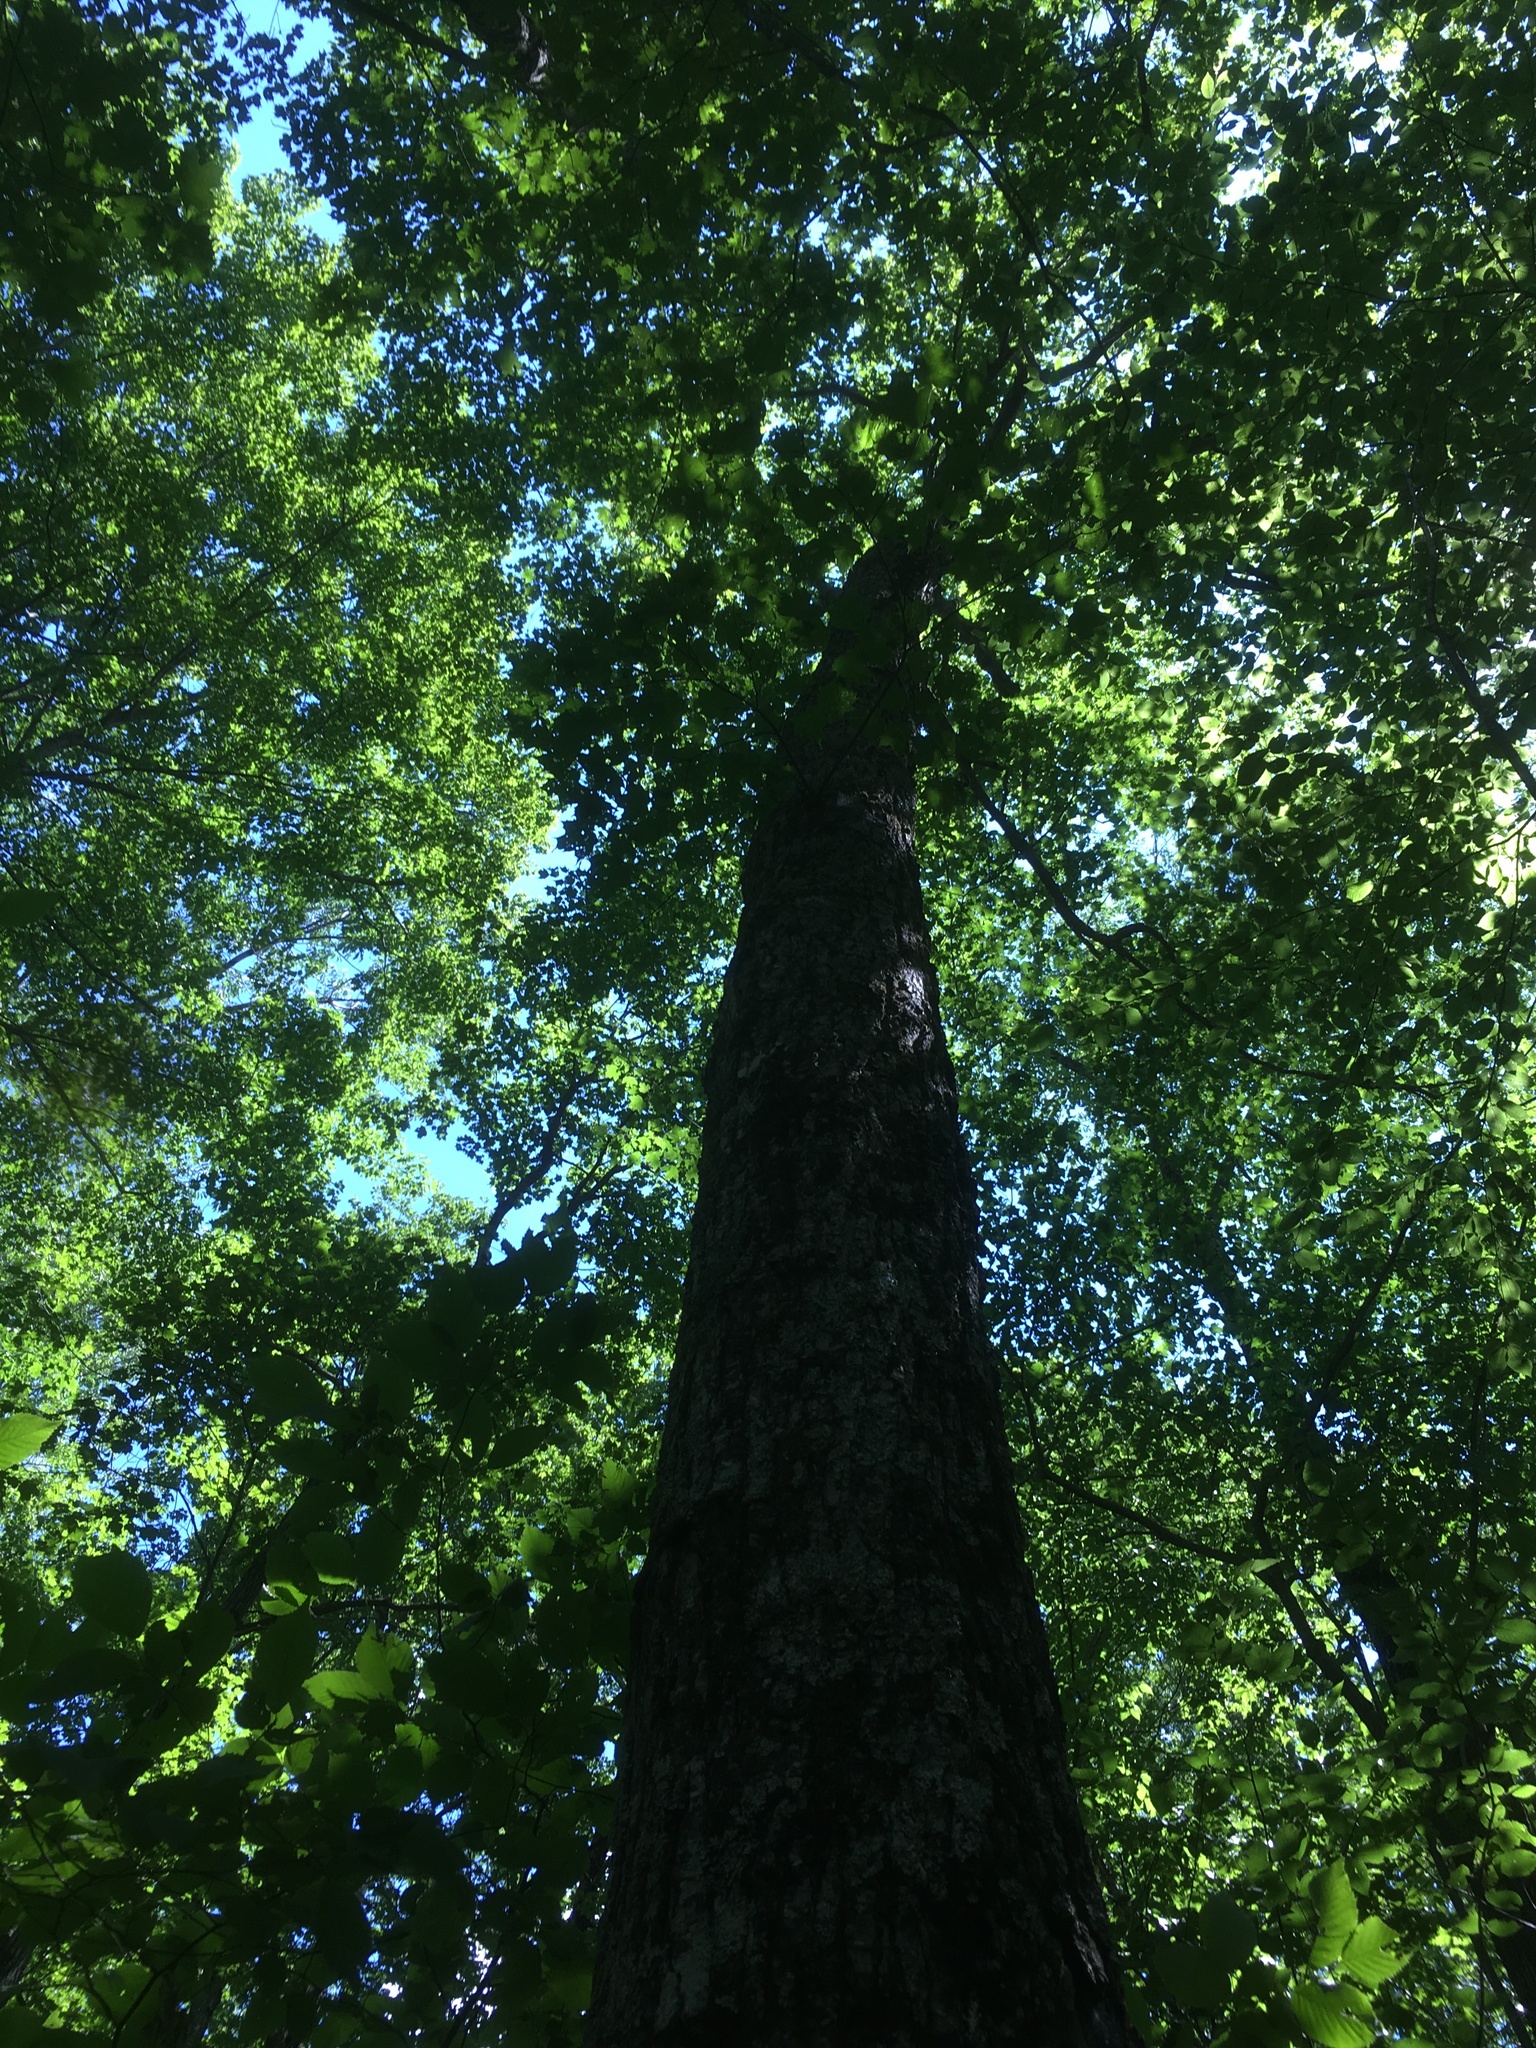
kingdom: Plantae
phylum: Tracheophyta
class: Magnoliopsida
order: Sapindales
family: Sapindaceae
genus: Acer
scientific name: Acer saccharum
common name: Sugar maple
